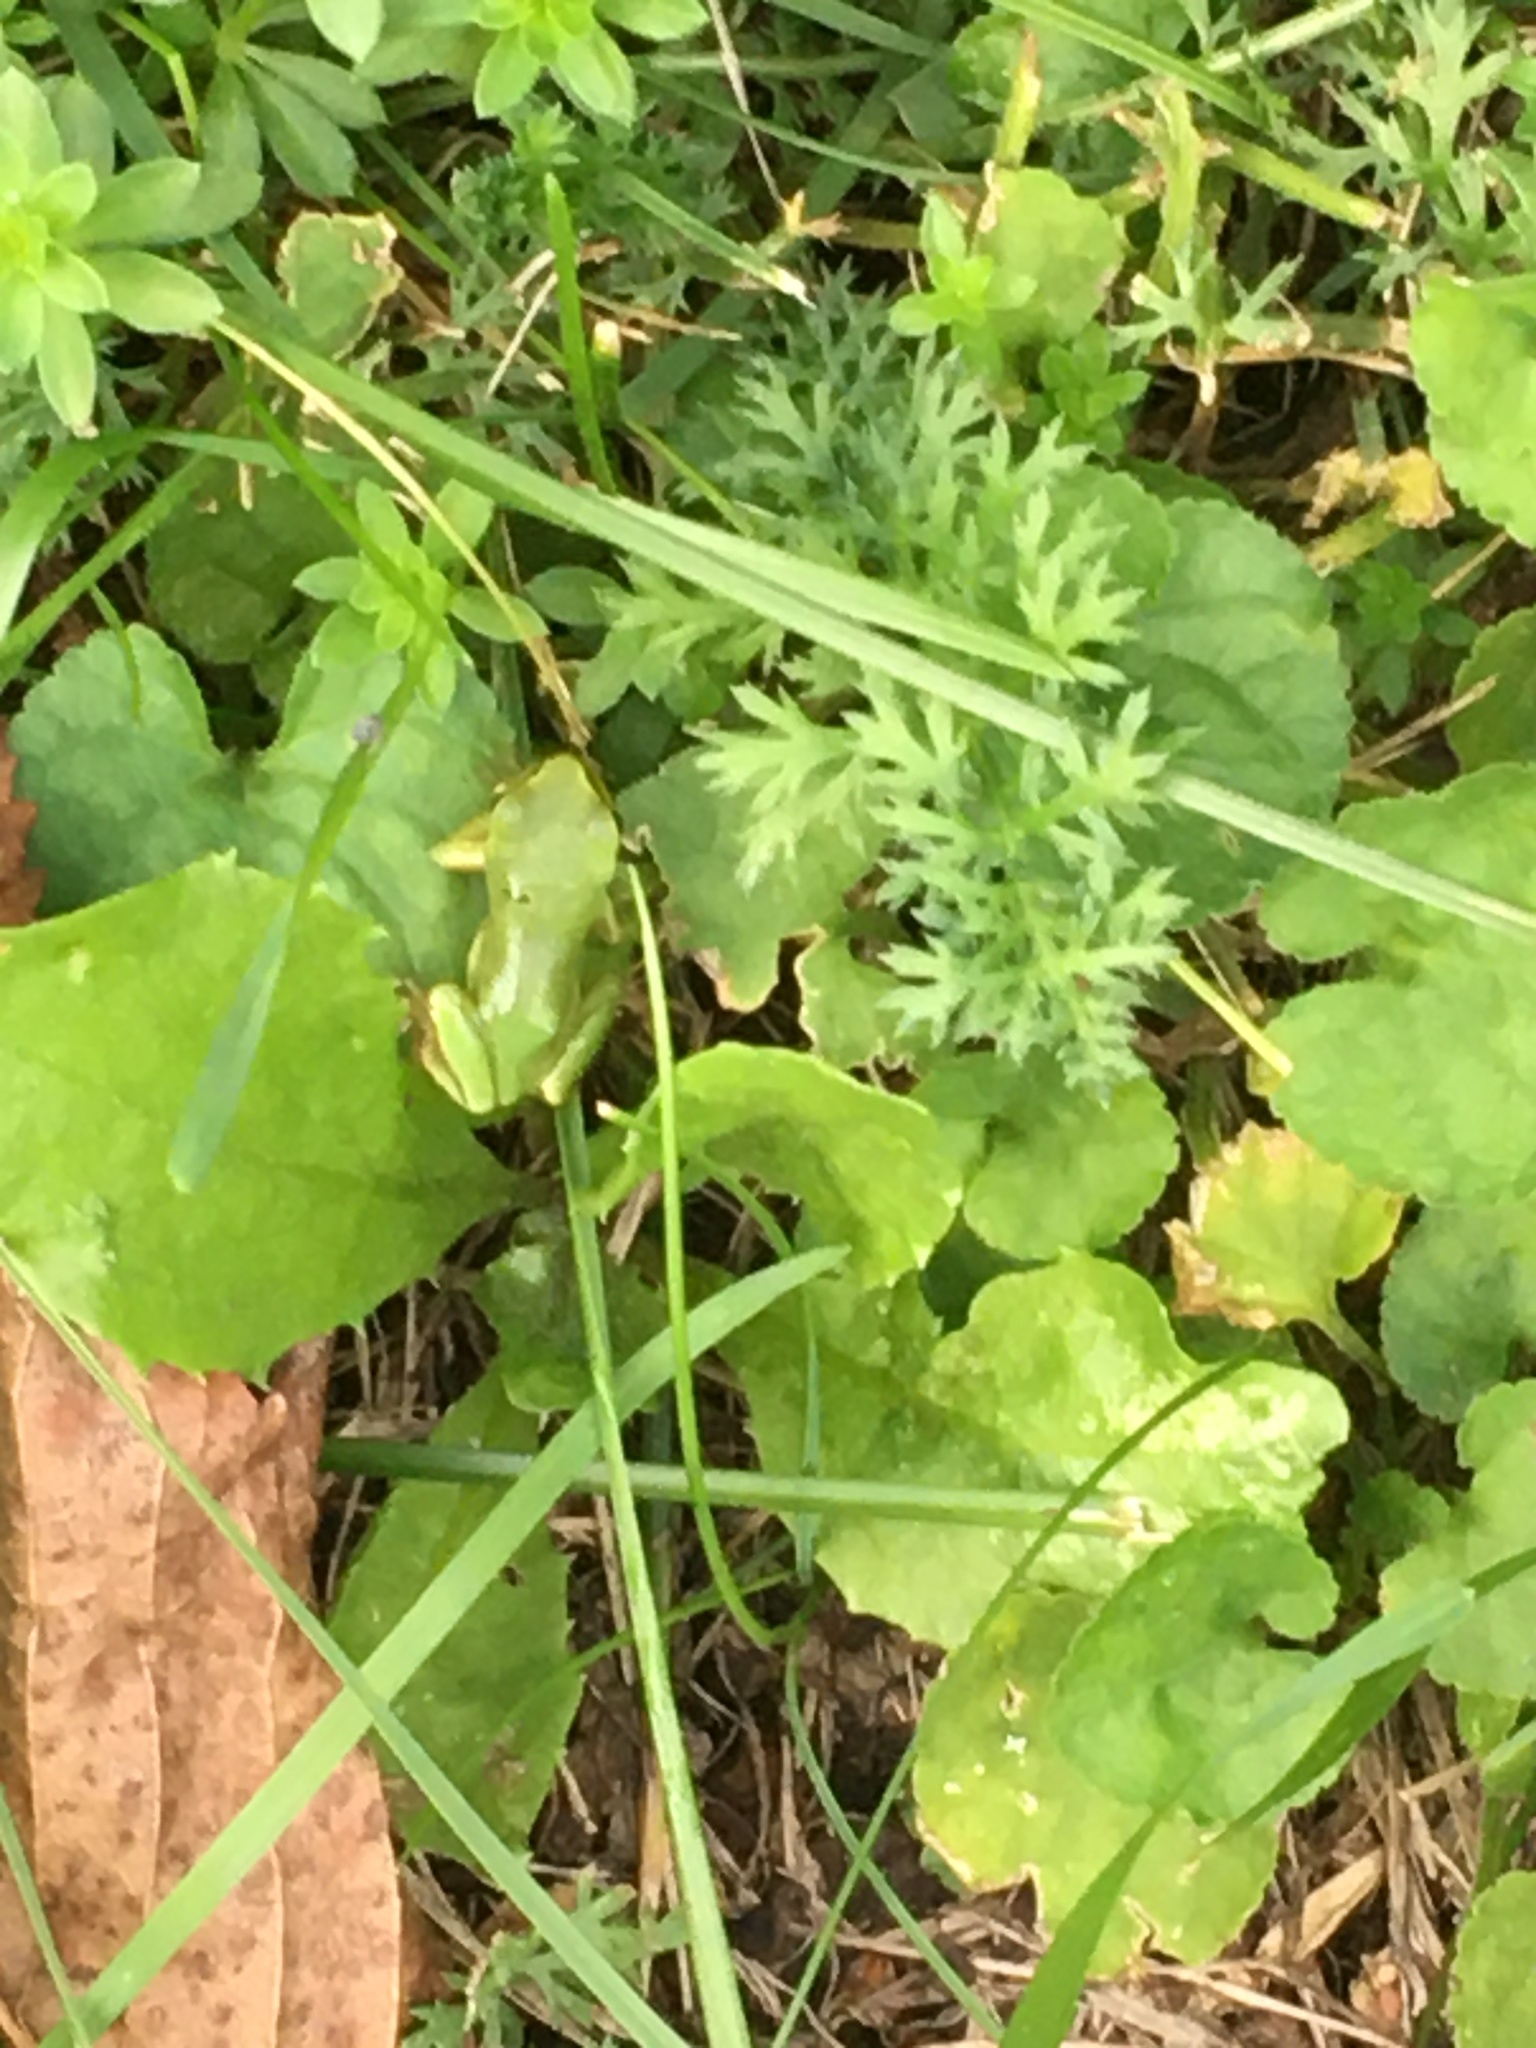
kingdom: Animalia
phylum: Chordata
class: Amphibia
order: Anura
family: Hylidae
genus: Hyla
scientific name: Hyla arborea
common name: Common tree frog
